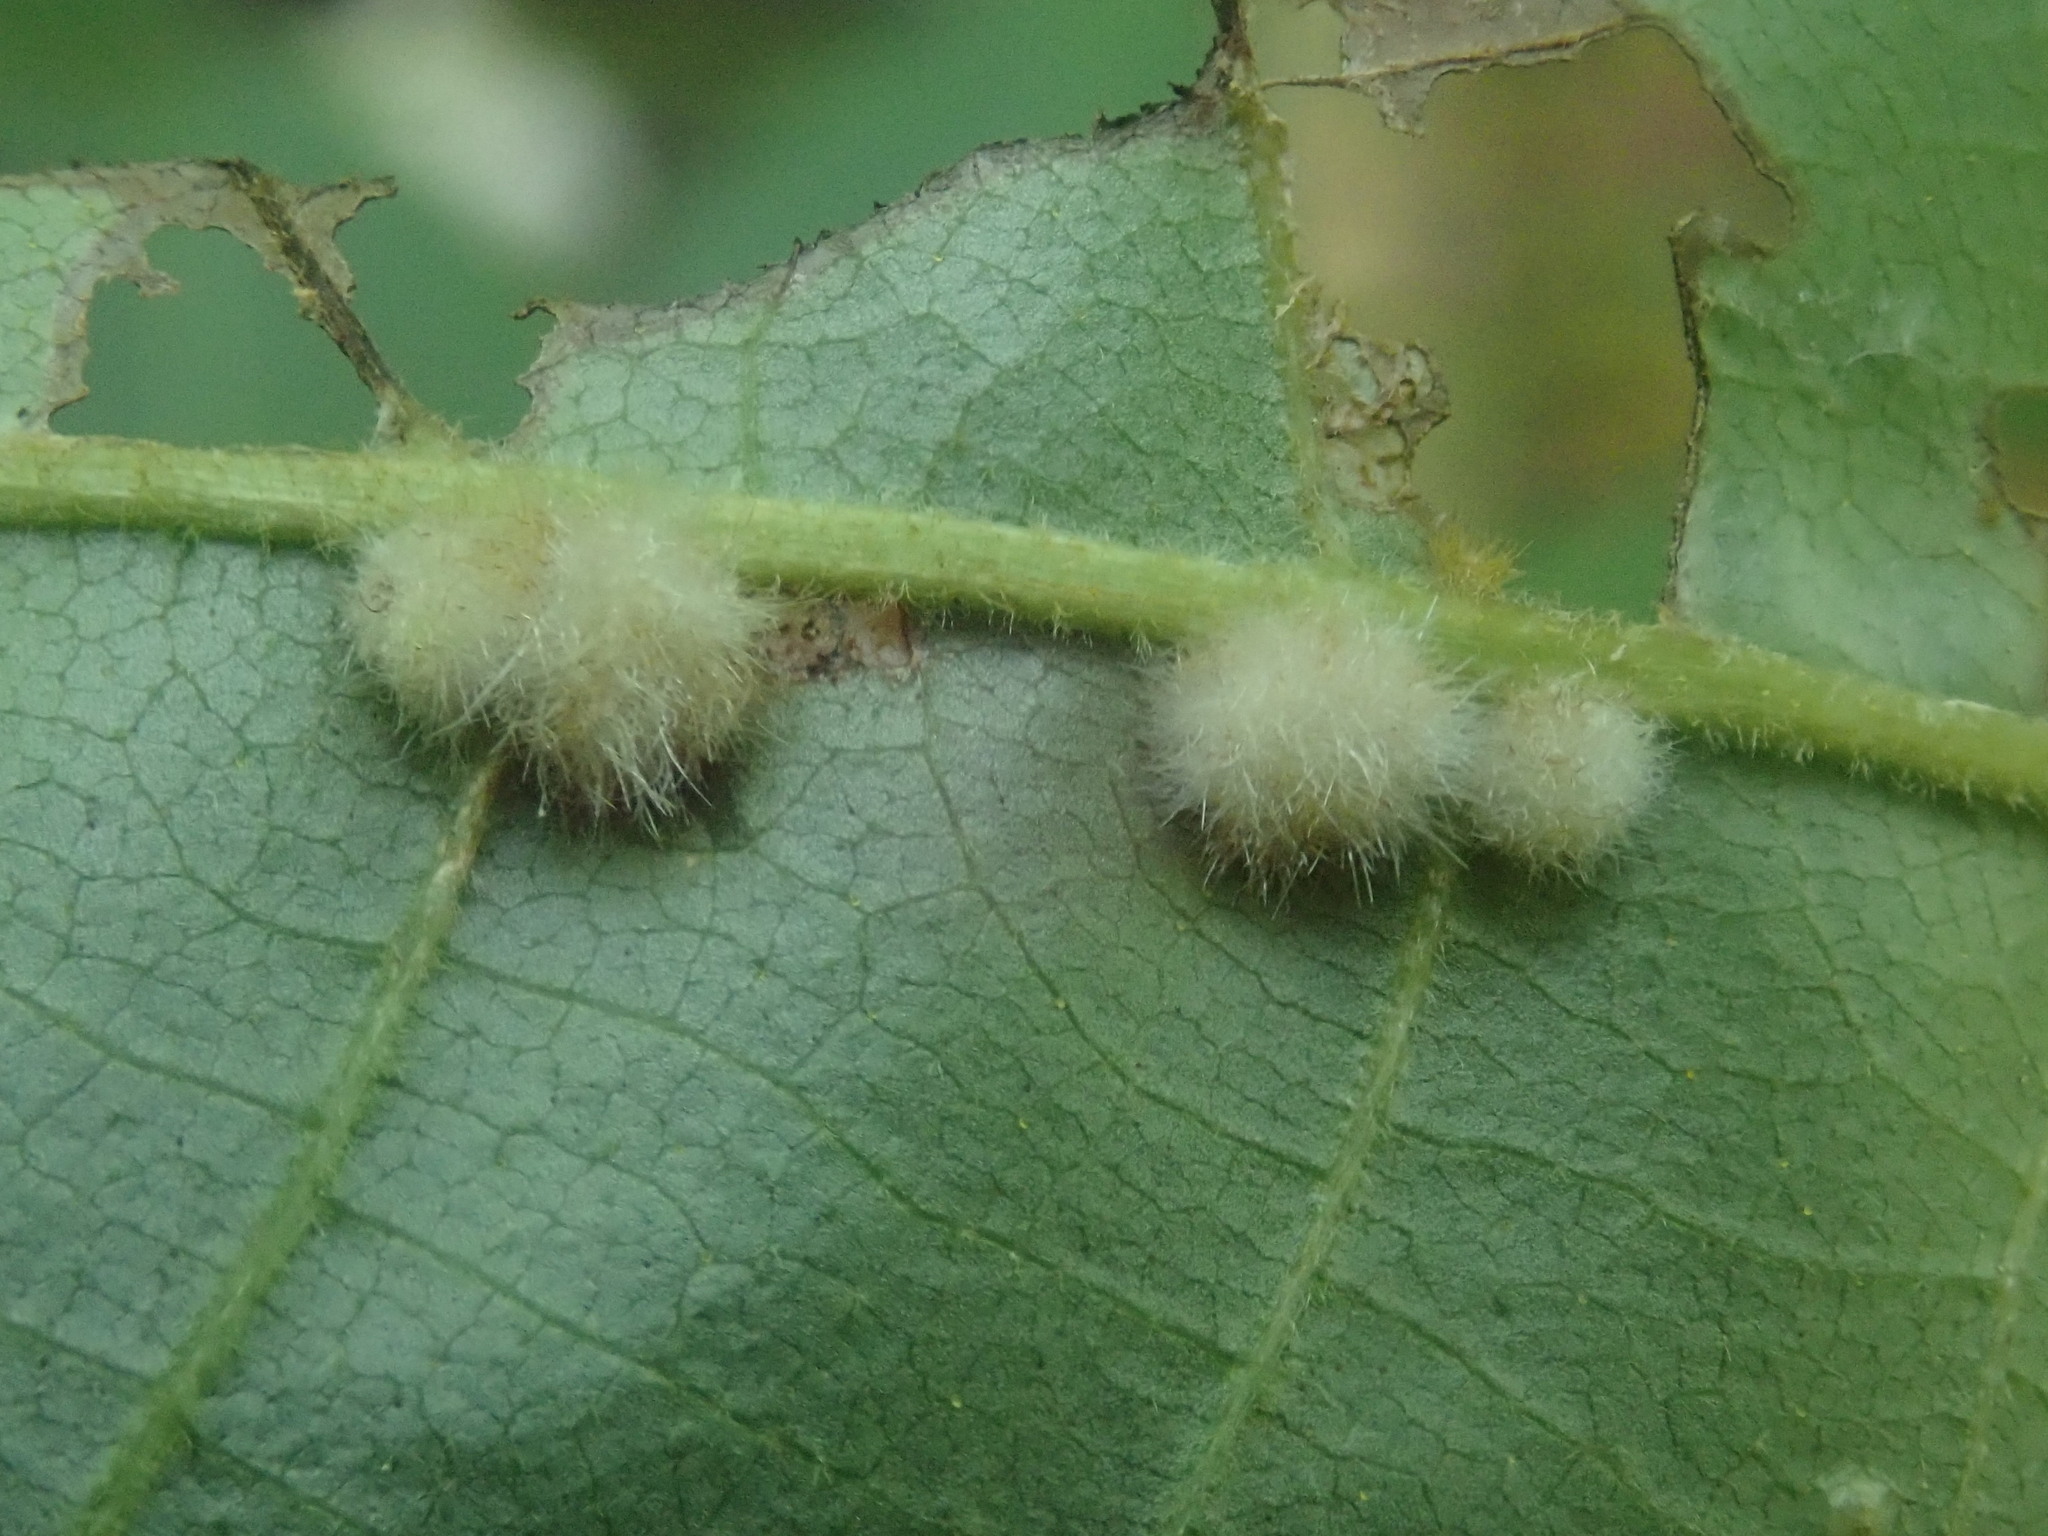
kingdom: Animalia
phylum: Arthropoda
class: Insecta
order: Diptera
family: Cecidomyiidae
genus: Caryomyia
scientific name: Caryomyia aggregata
